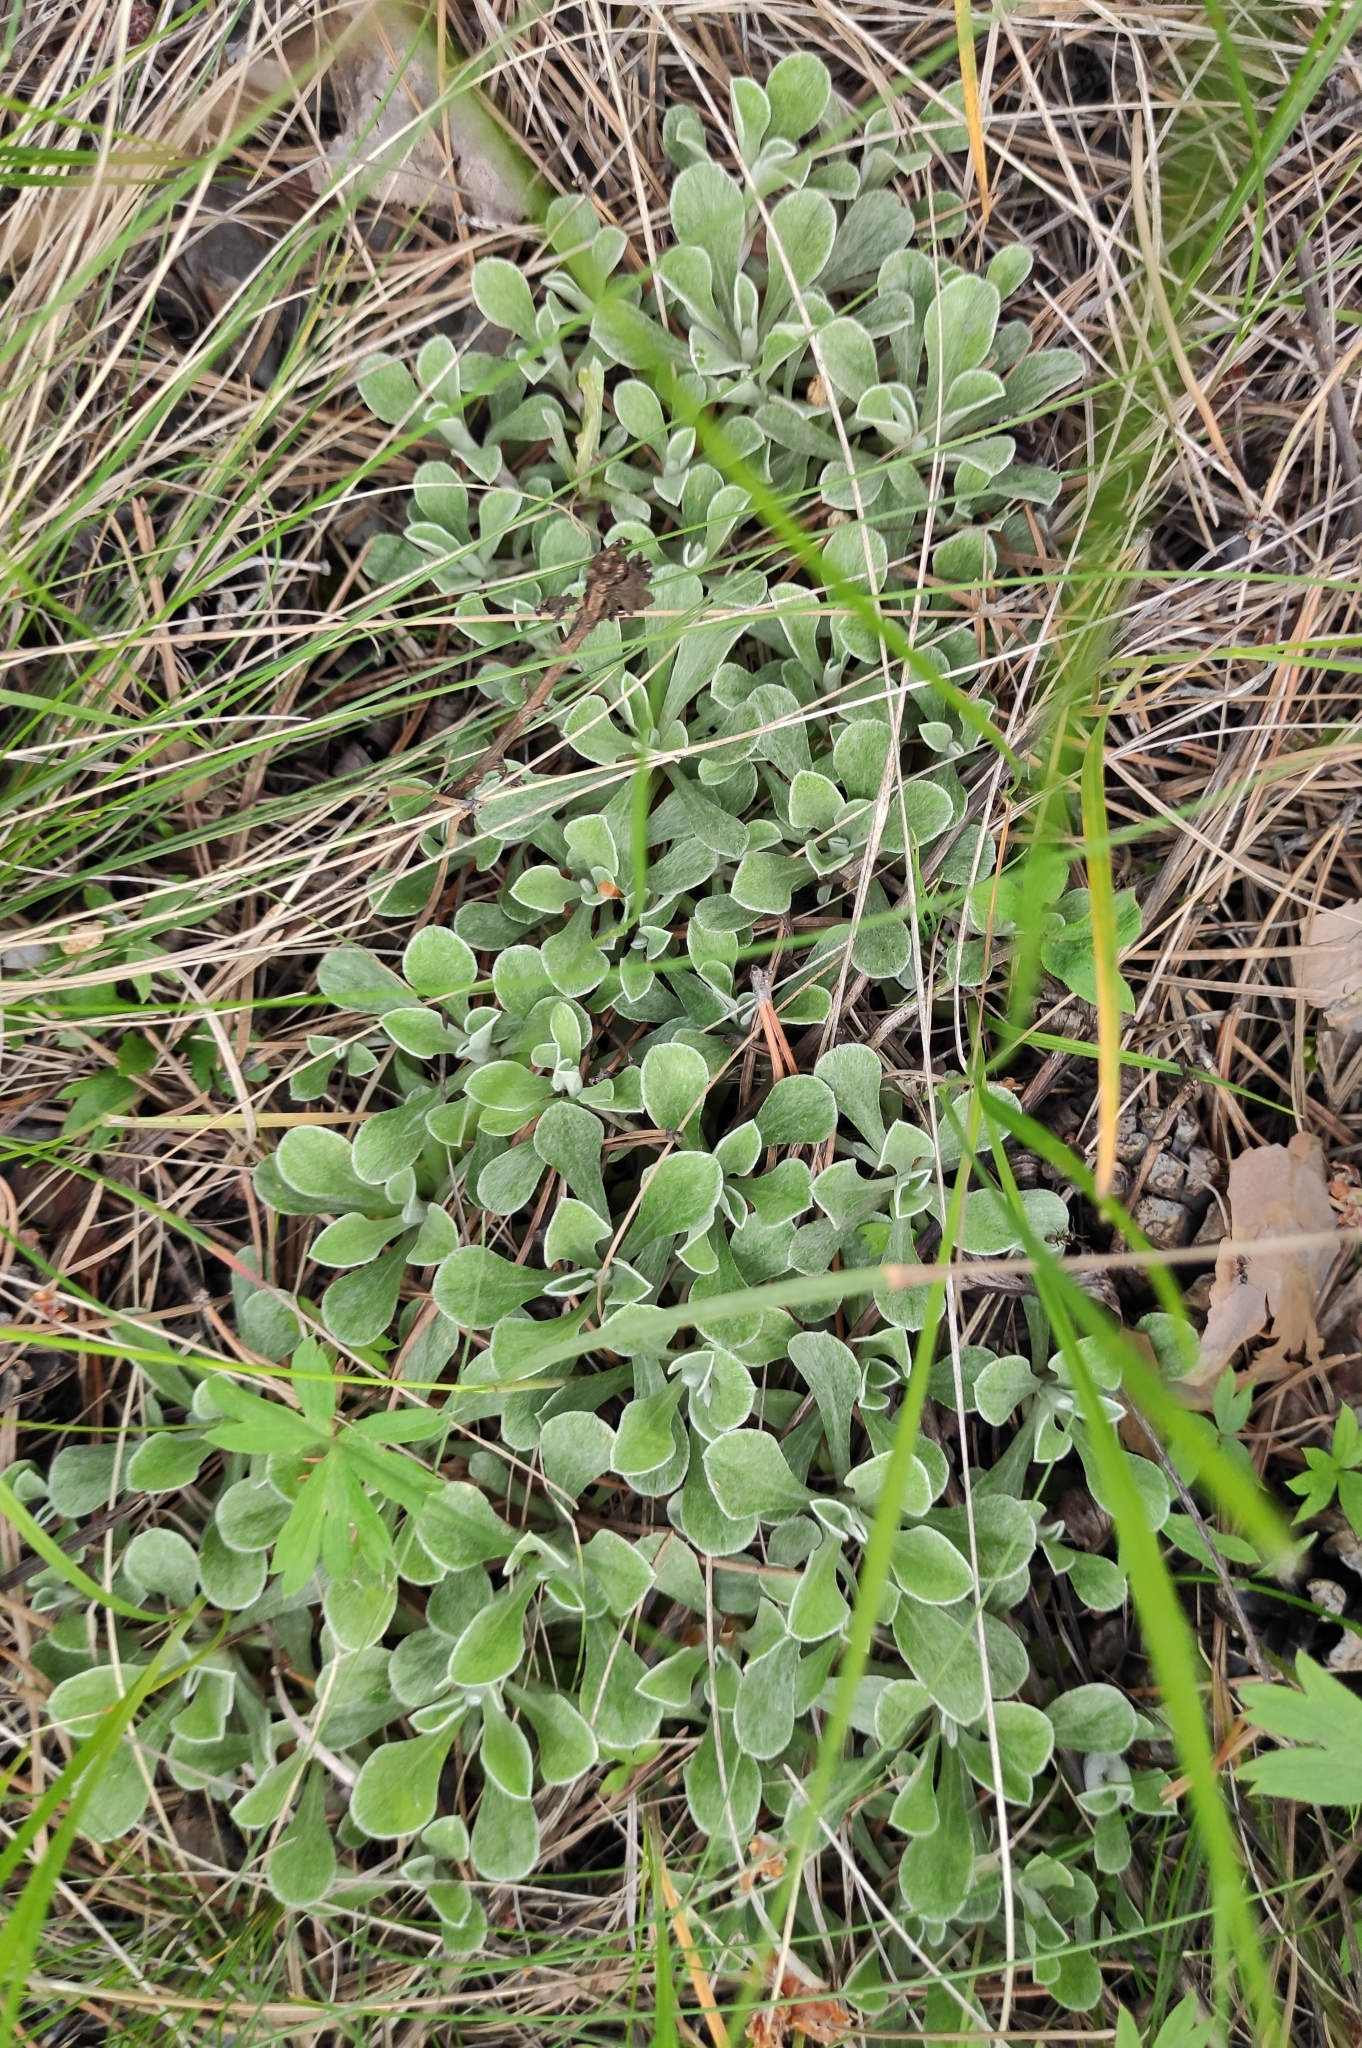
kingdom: Plantae
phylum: Tracheophyta
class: Magnoliopsida
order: Asterales
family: Asteraceae
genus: Antennaria
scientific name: Antennaria dioica
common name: Mountain everlasting
